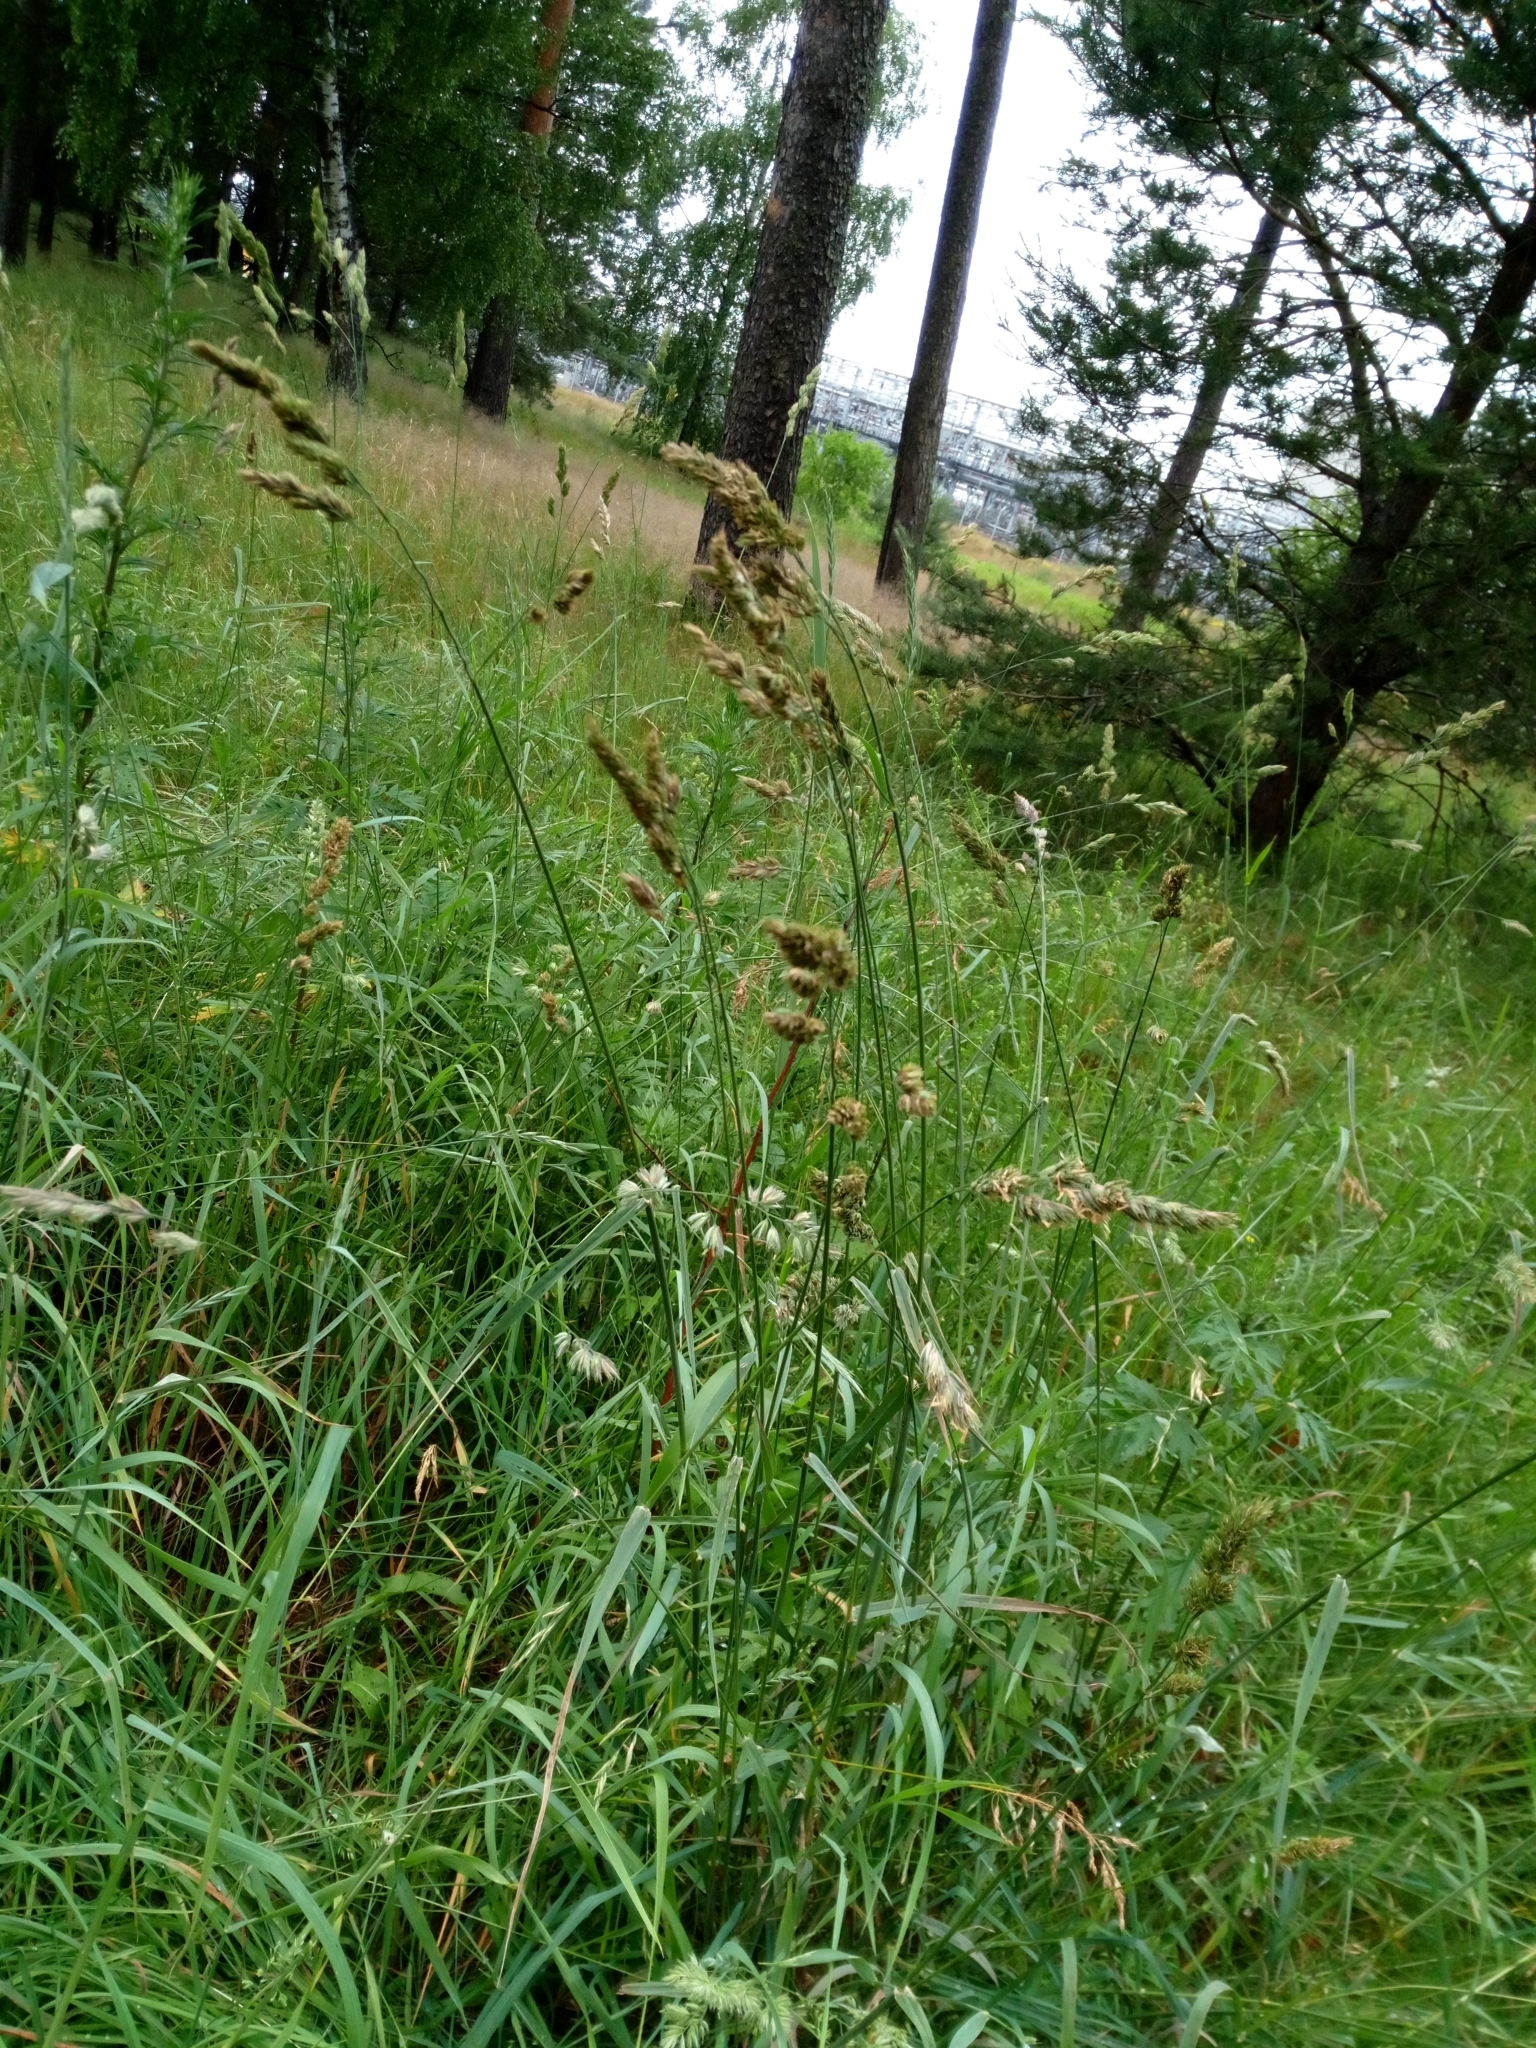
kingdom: Plantae
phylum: Tracheophyta
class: Liliopsida
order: Poales
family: Poaceae
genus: Dactylis
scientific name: Dactylis glomerata
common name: Orchardgrass
